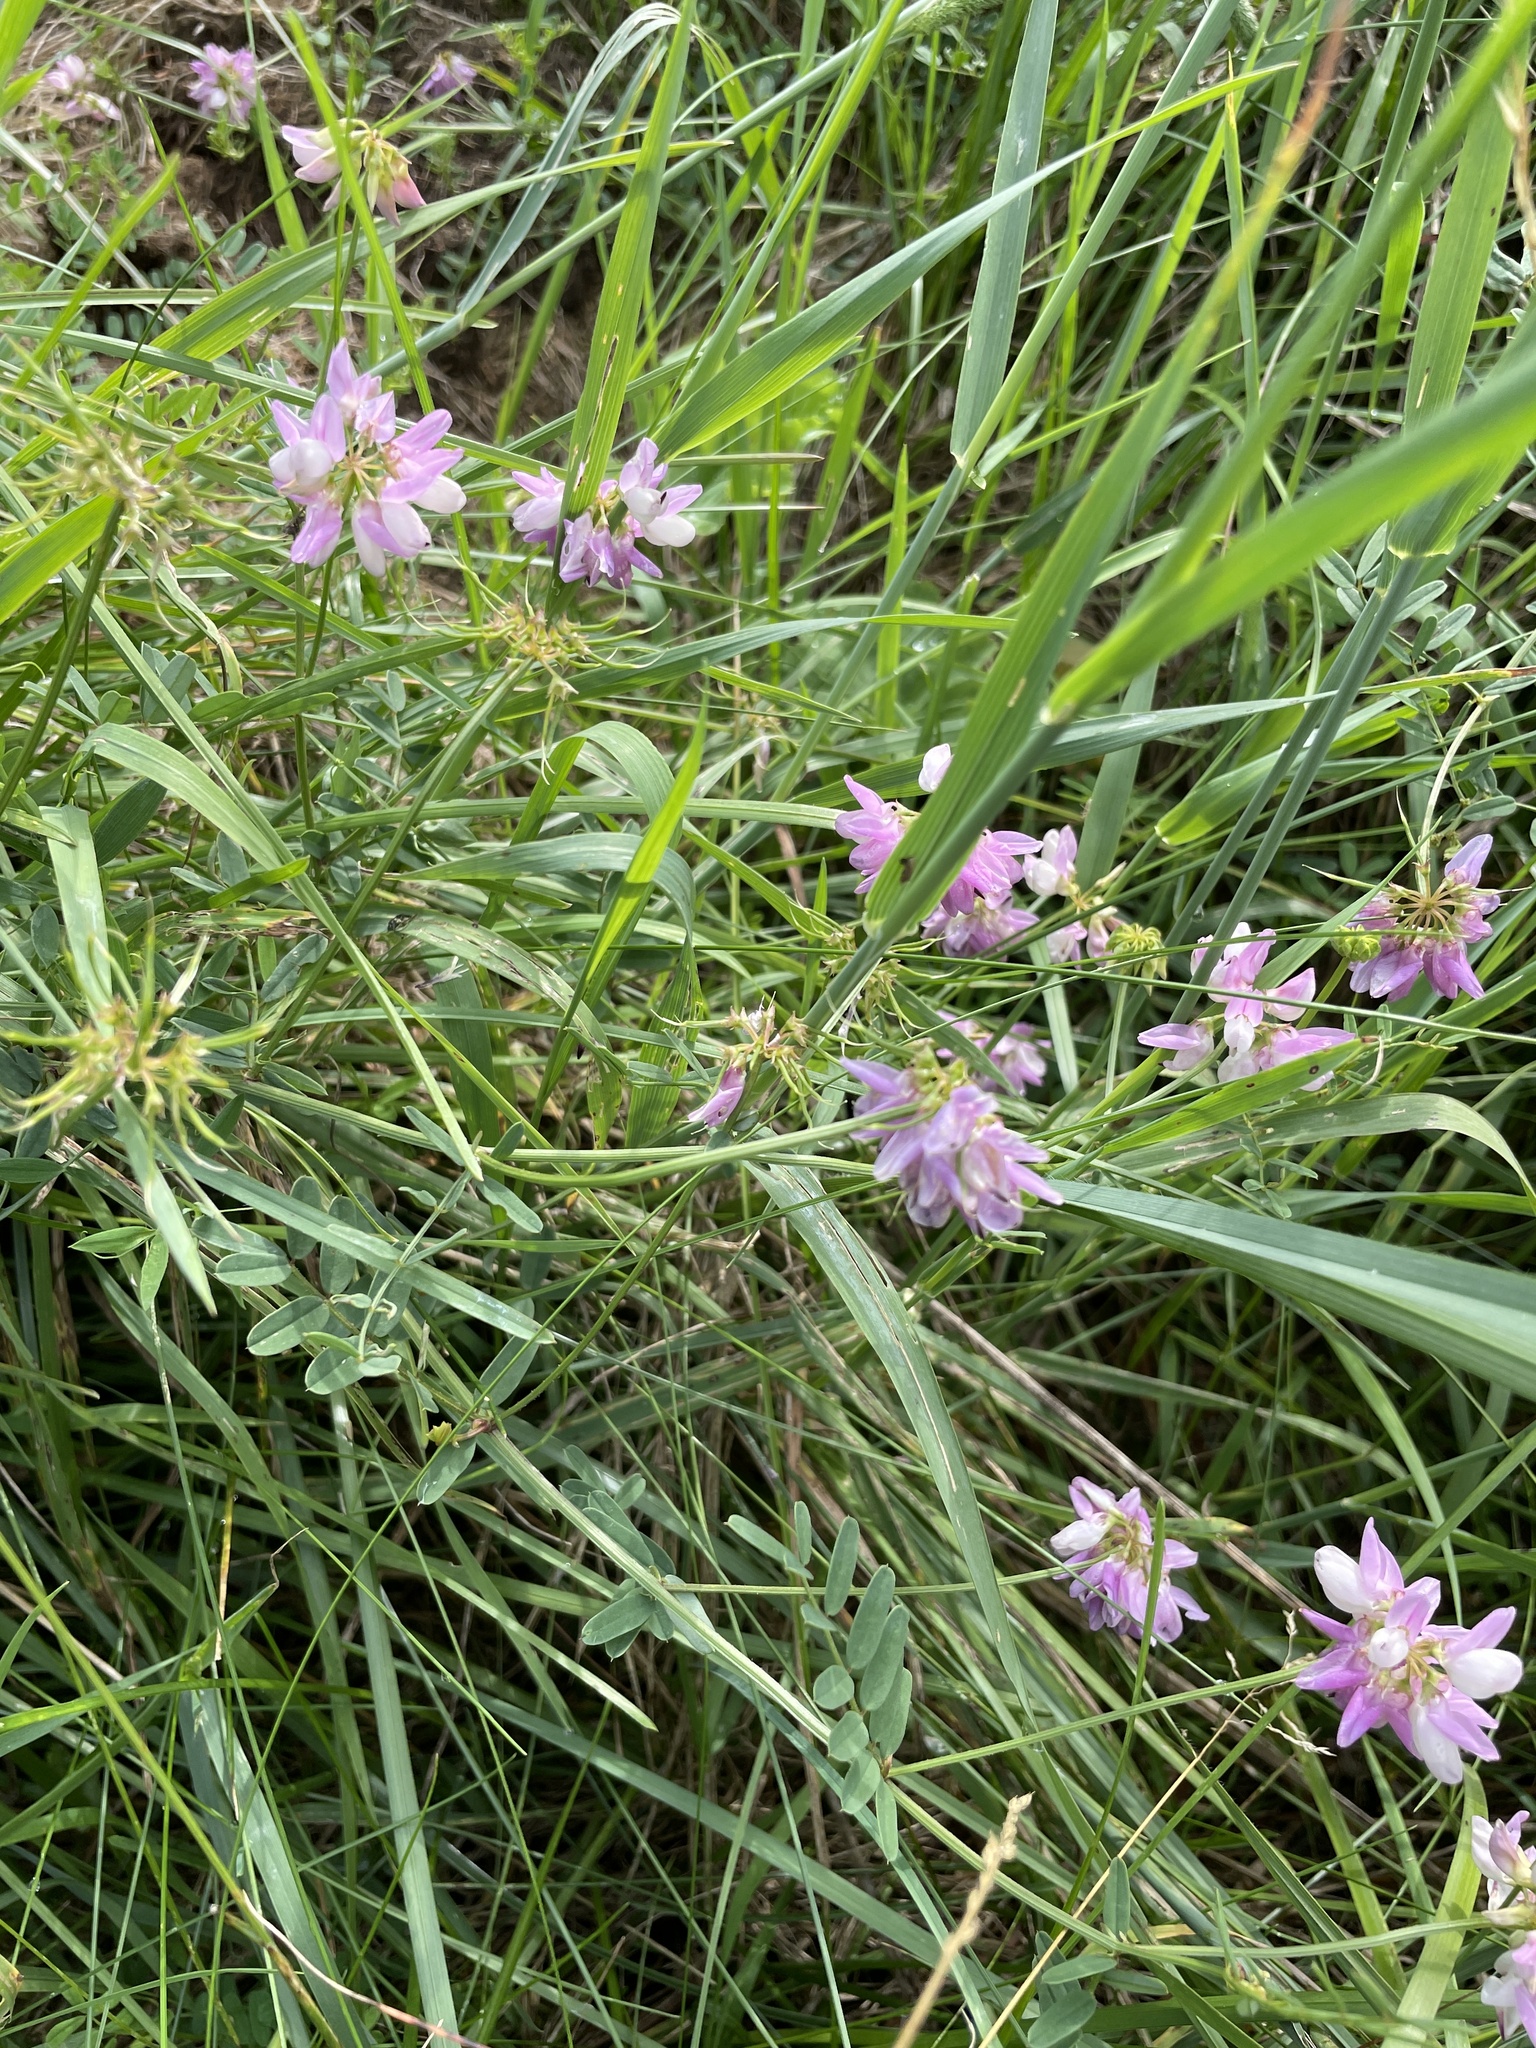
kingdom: Plantae
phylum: Tracheophyta
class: Magnoliopsida
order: Fabales
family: Fabaceae
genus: Coronilla
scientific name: Coronilla varia
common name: Crownvetch
